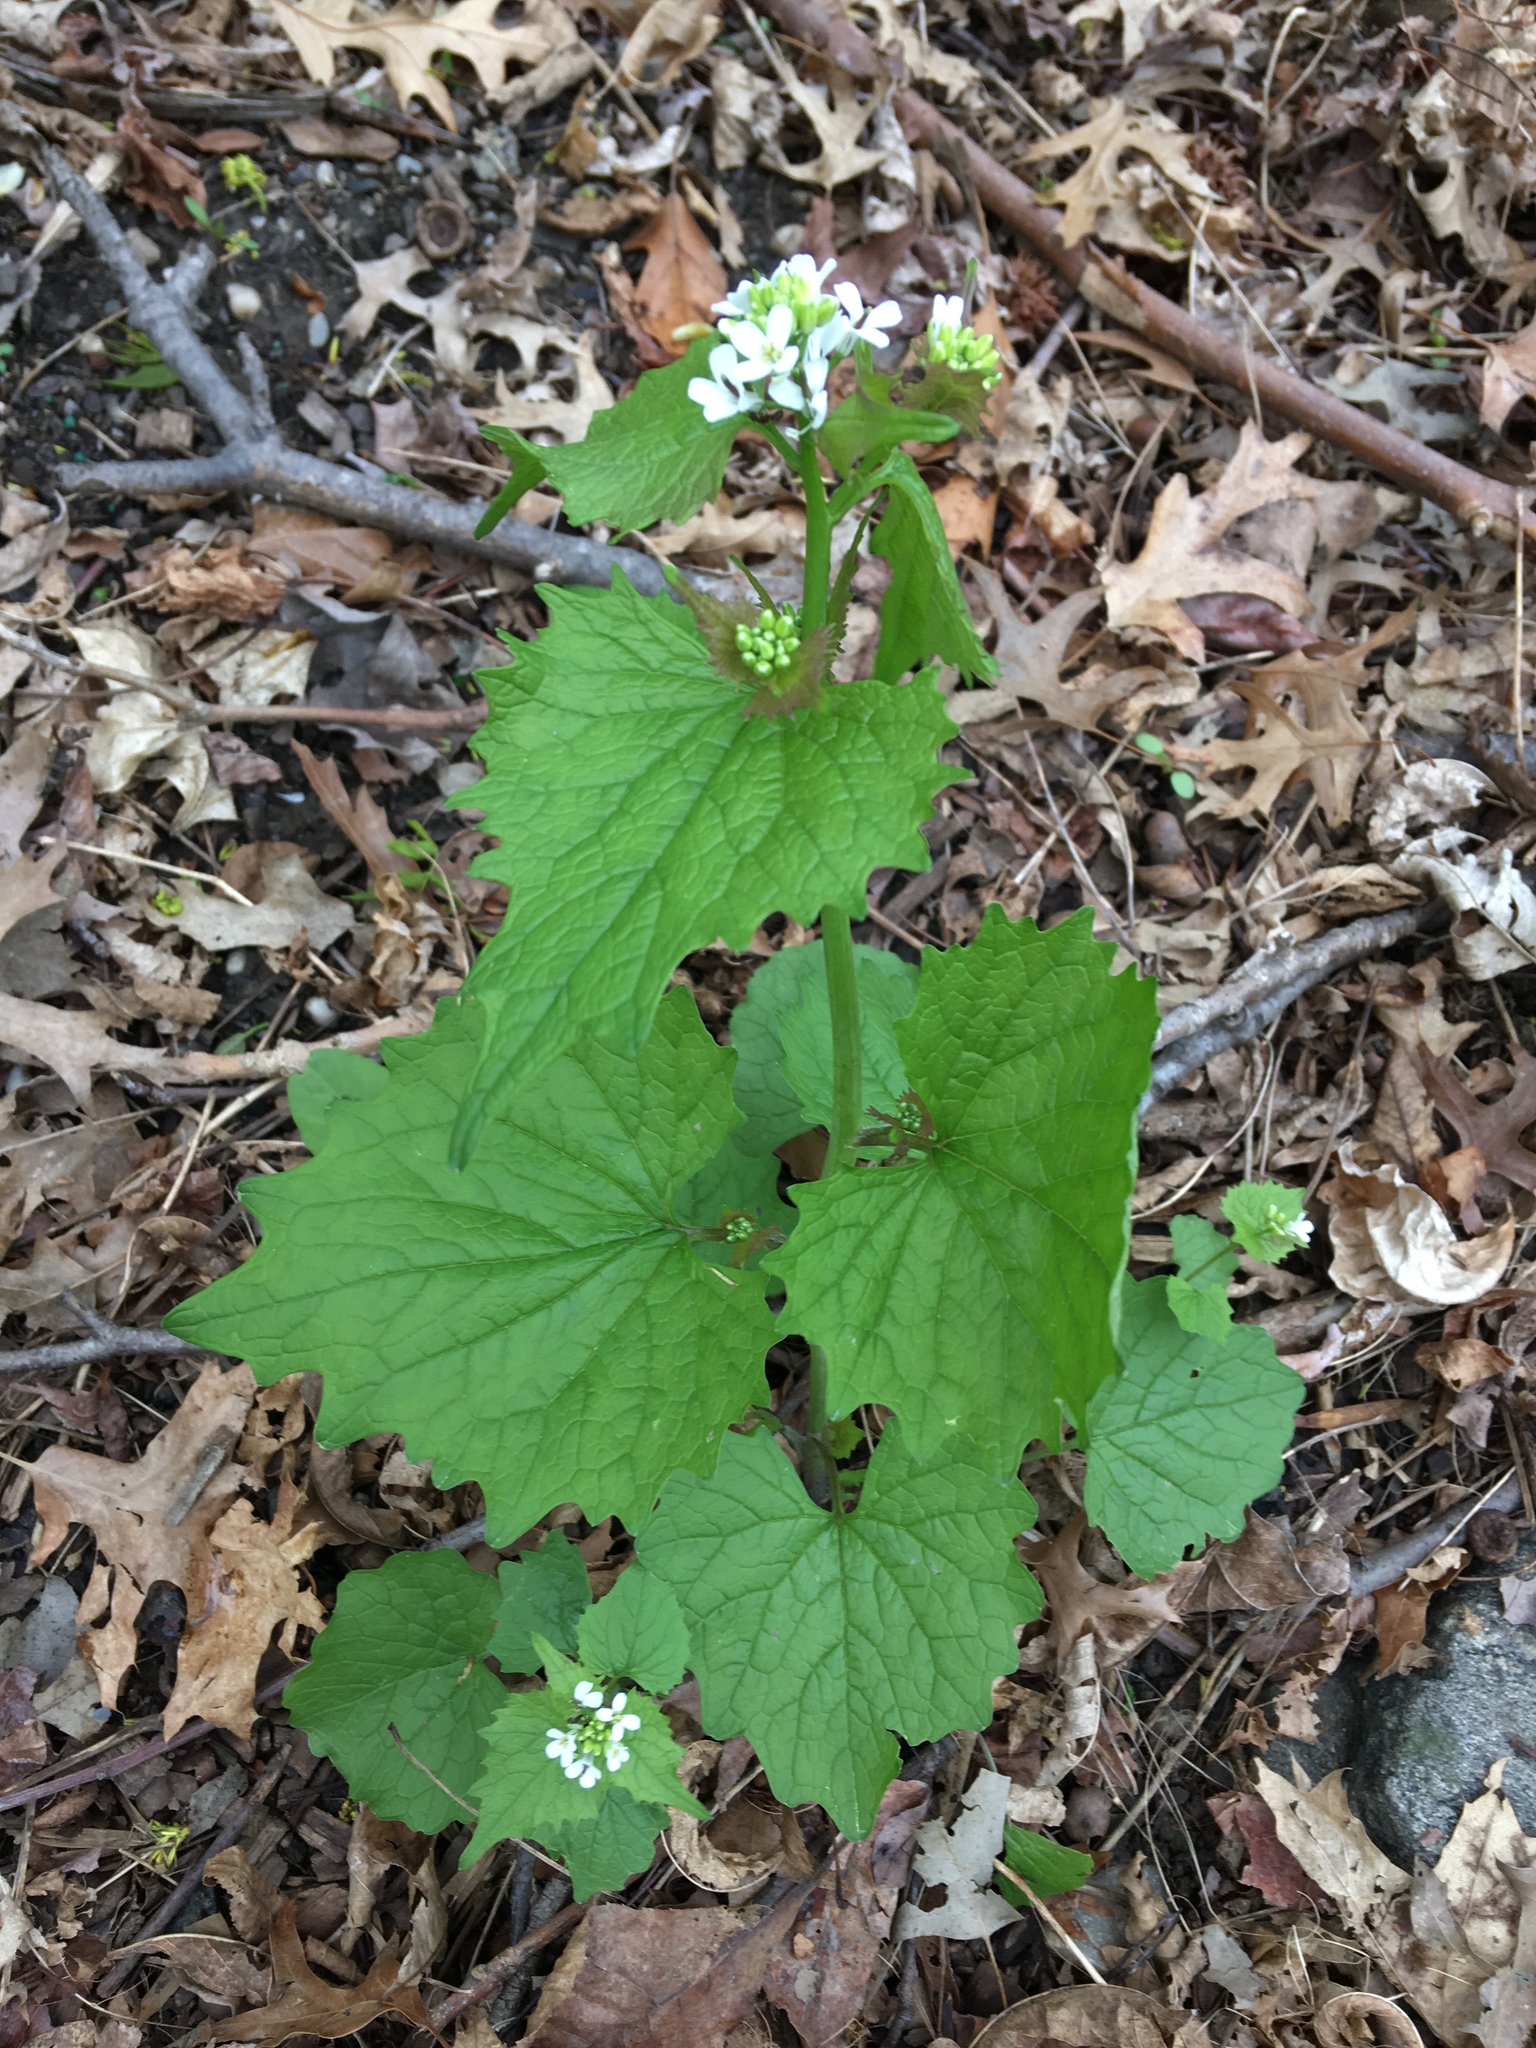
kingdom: Plantae
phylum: Tracheophyta
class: Magnoliopsida
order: Brassicales
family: Brassicaceae
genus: Alliaria
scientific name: Alliaria petiolata
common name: Garlic mustard
